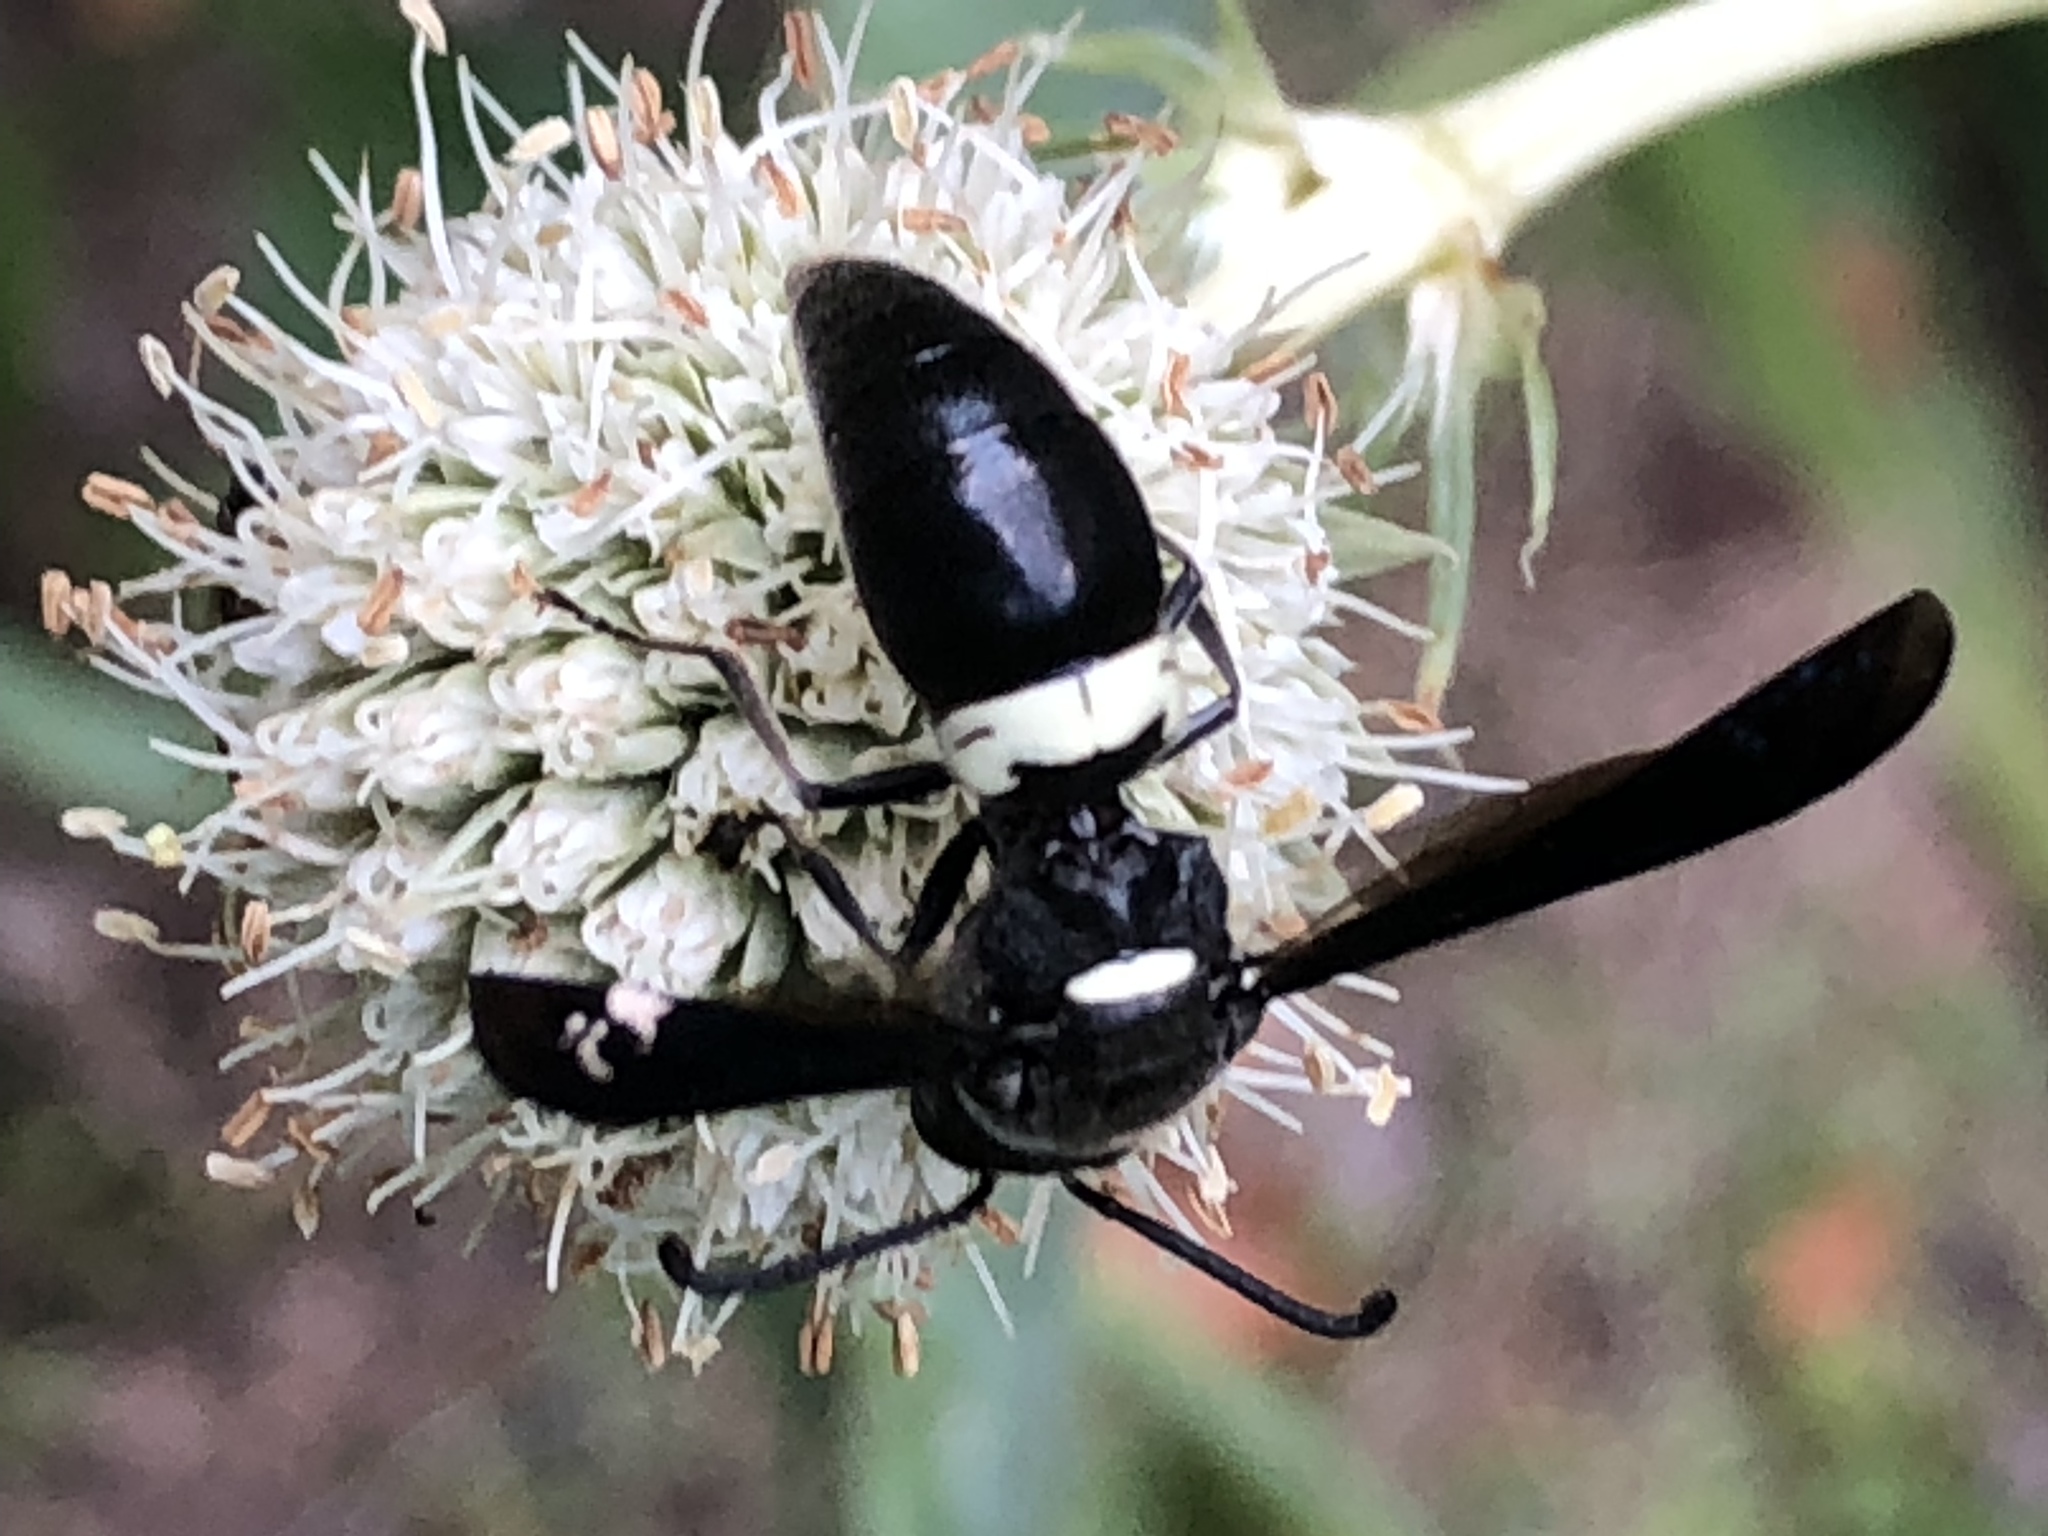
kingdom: Animalia
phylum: Arthropoda
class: Insecta
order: Hymenoptera
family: Eumenidae
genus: Monobia
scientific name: Monobia quadridens
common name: Four-toothed mason wasp
